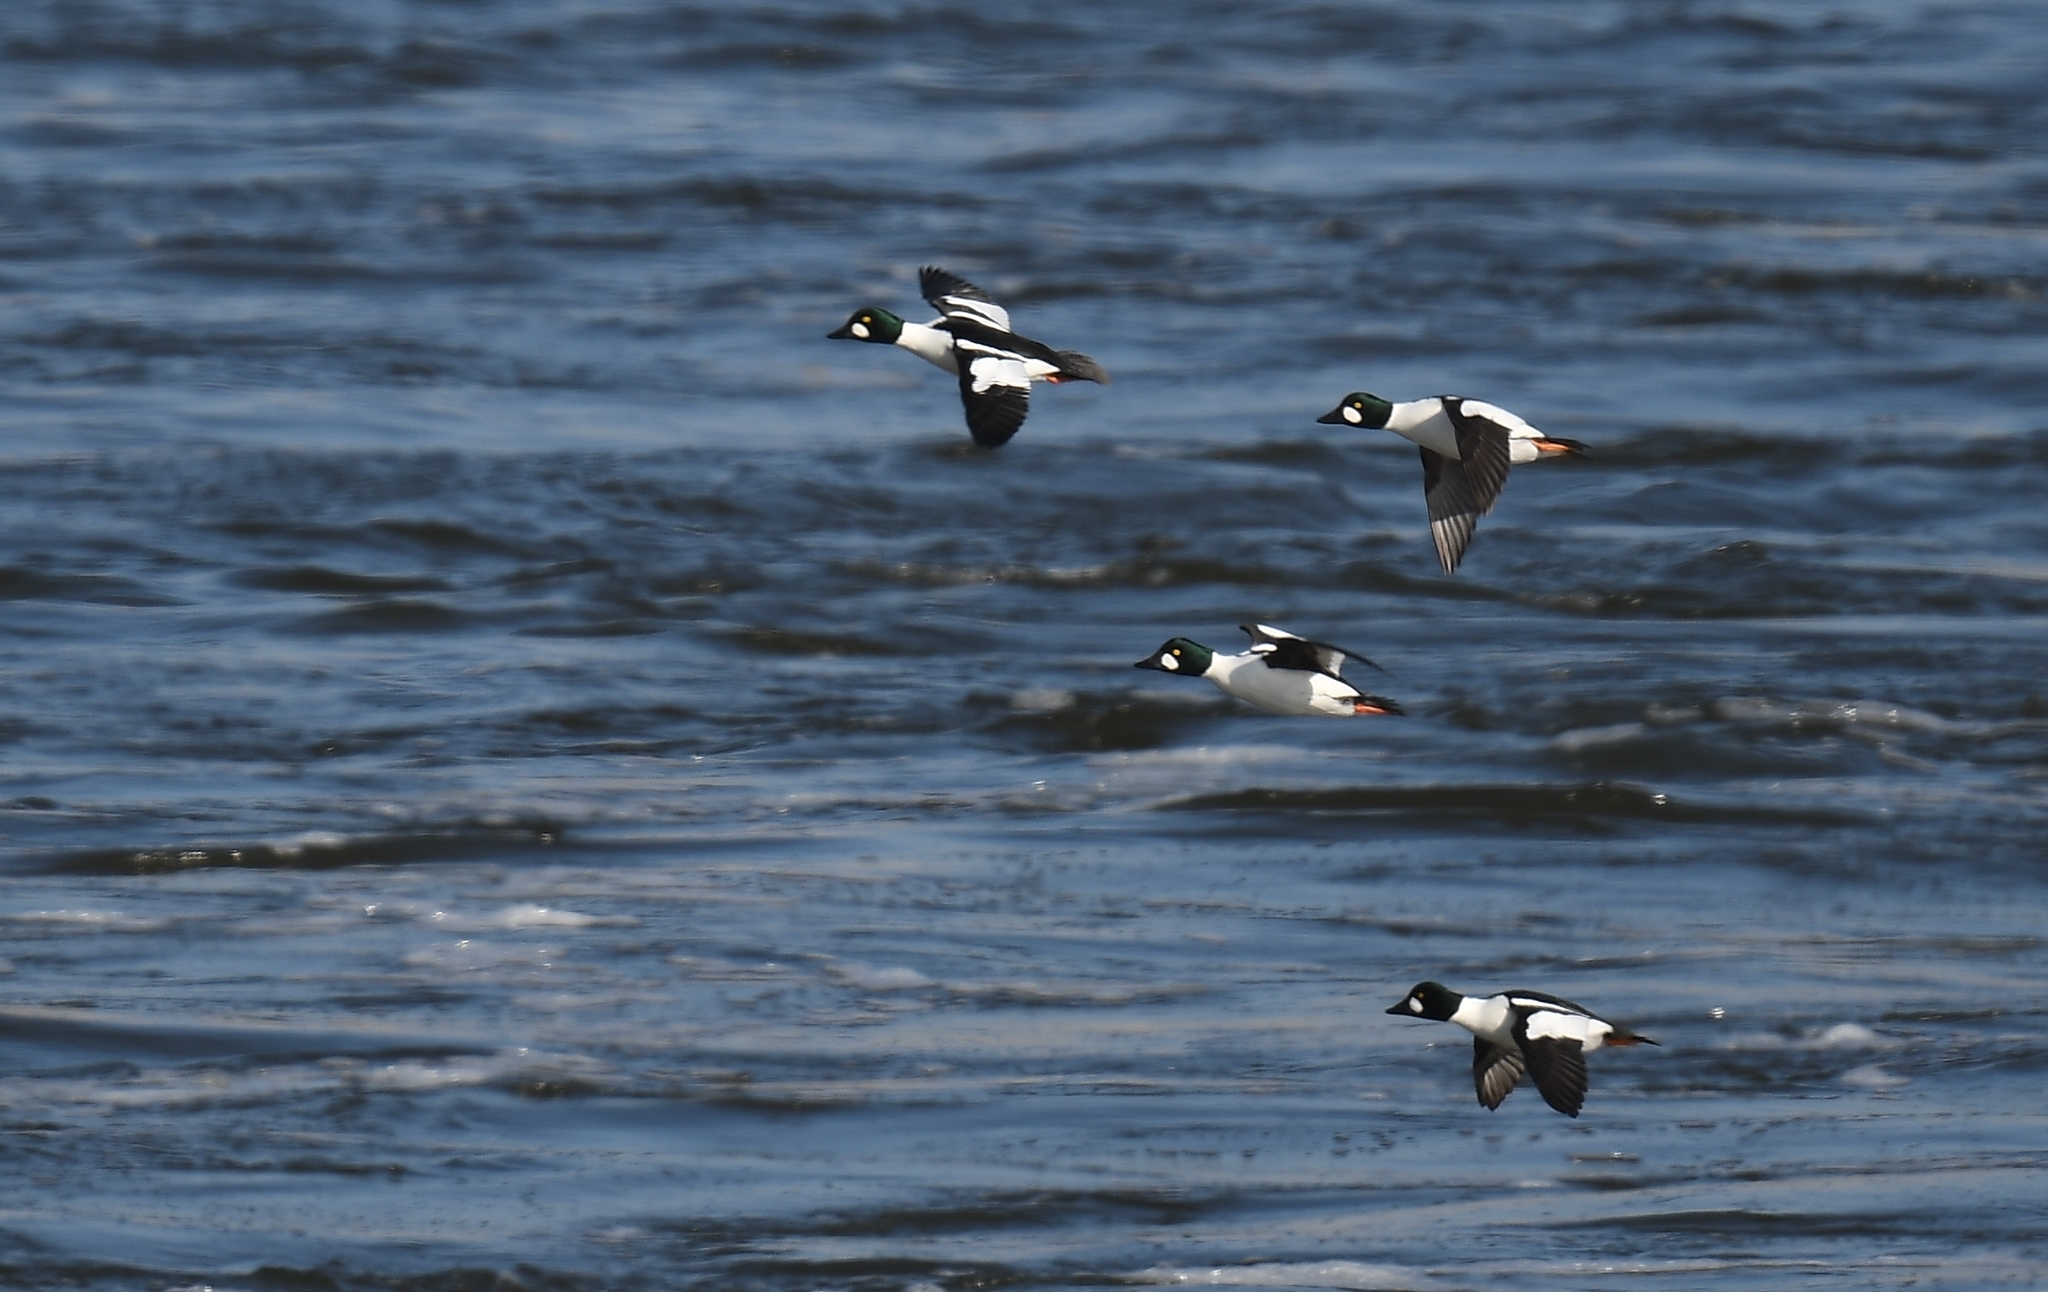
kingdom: Animalia
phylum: Chordata
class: Aves
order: Anseriformes
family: Anatidae
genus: Bucephala
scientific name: Bucephala clangula
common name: Common goldeneye
